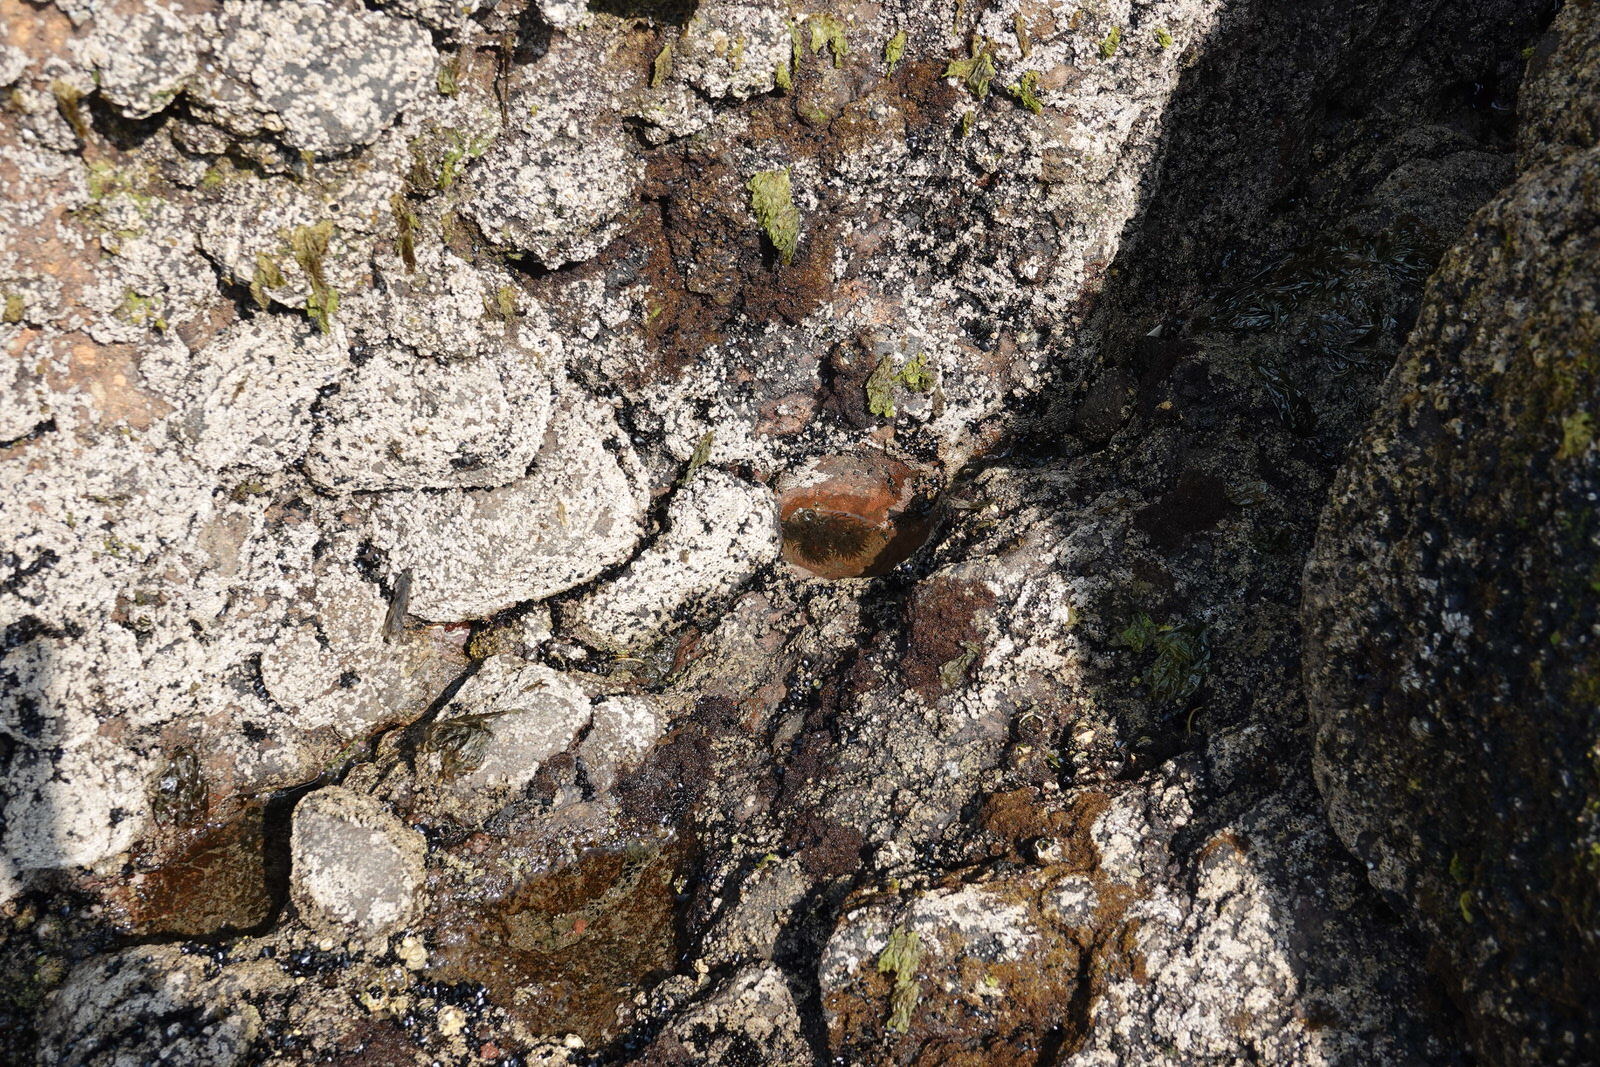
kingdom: Animalia
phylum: Cnidaria
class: Anthozoa
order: Actiniaria
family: Actiniidae
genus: Isactinia
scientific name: Isactinia olivacea
